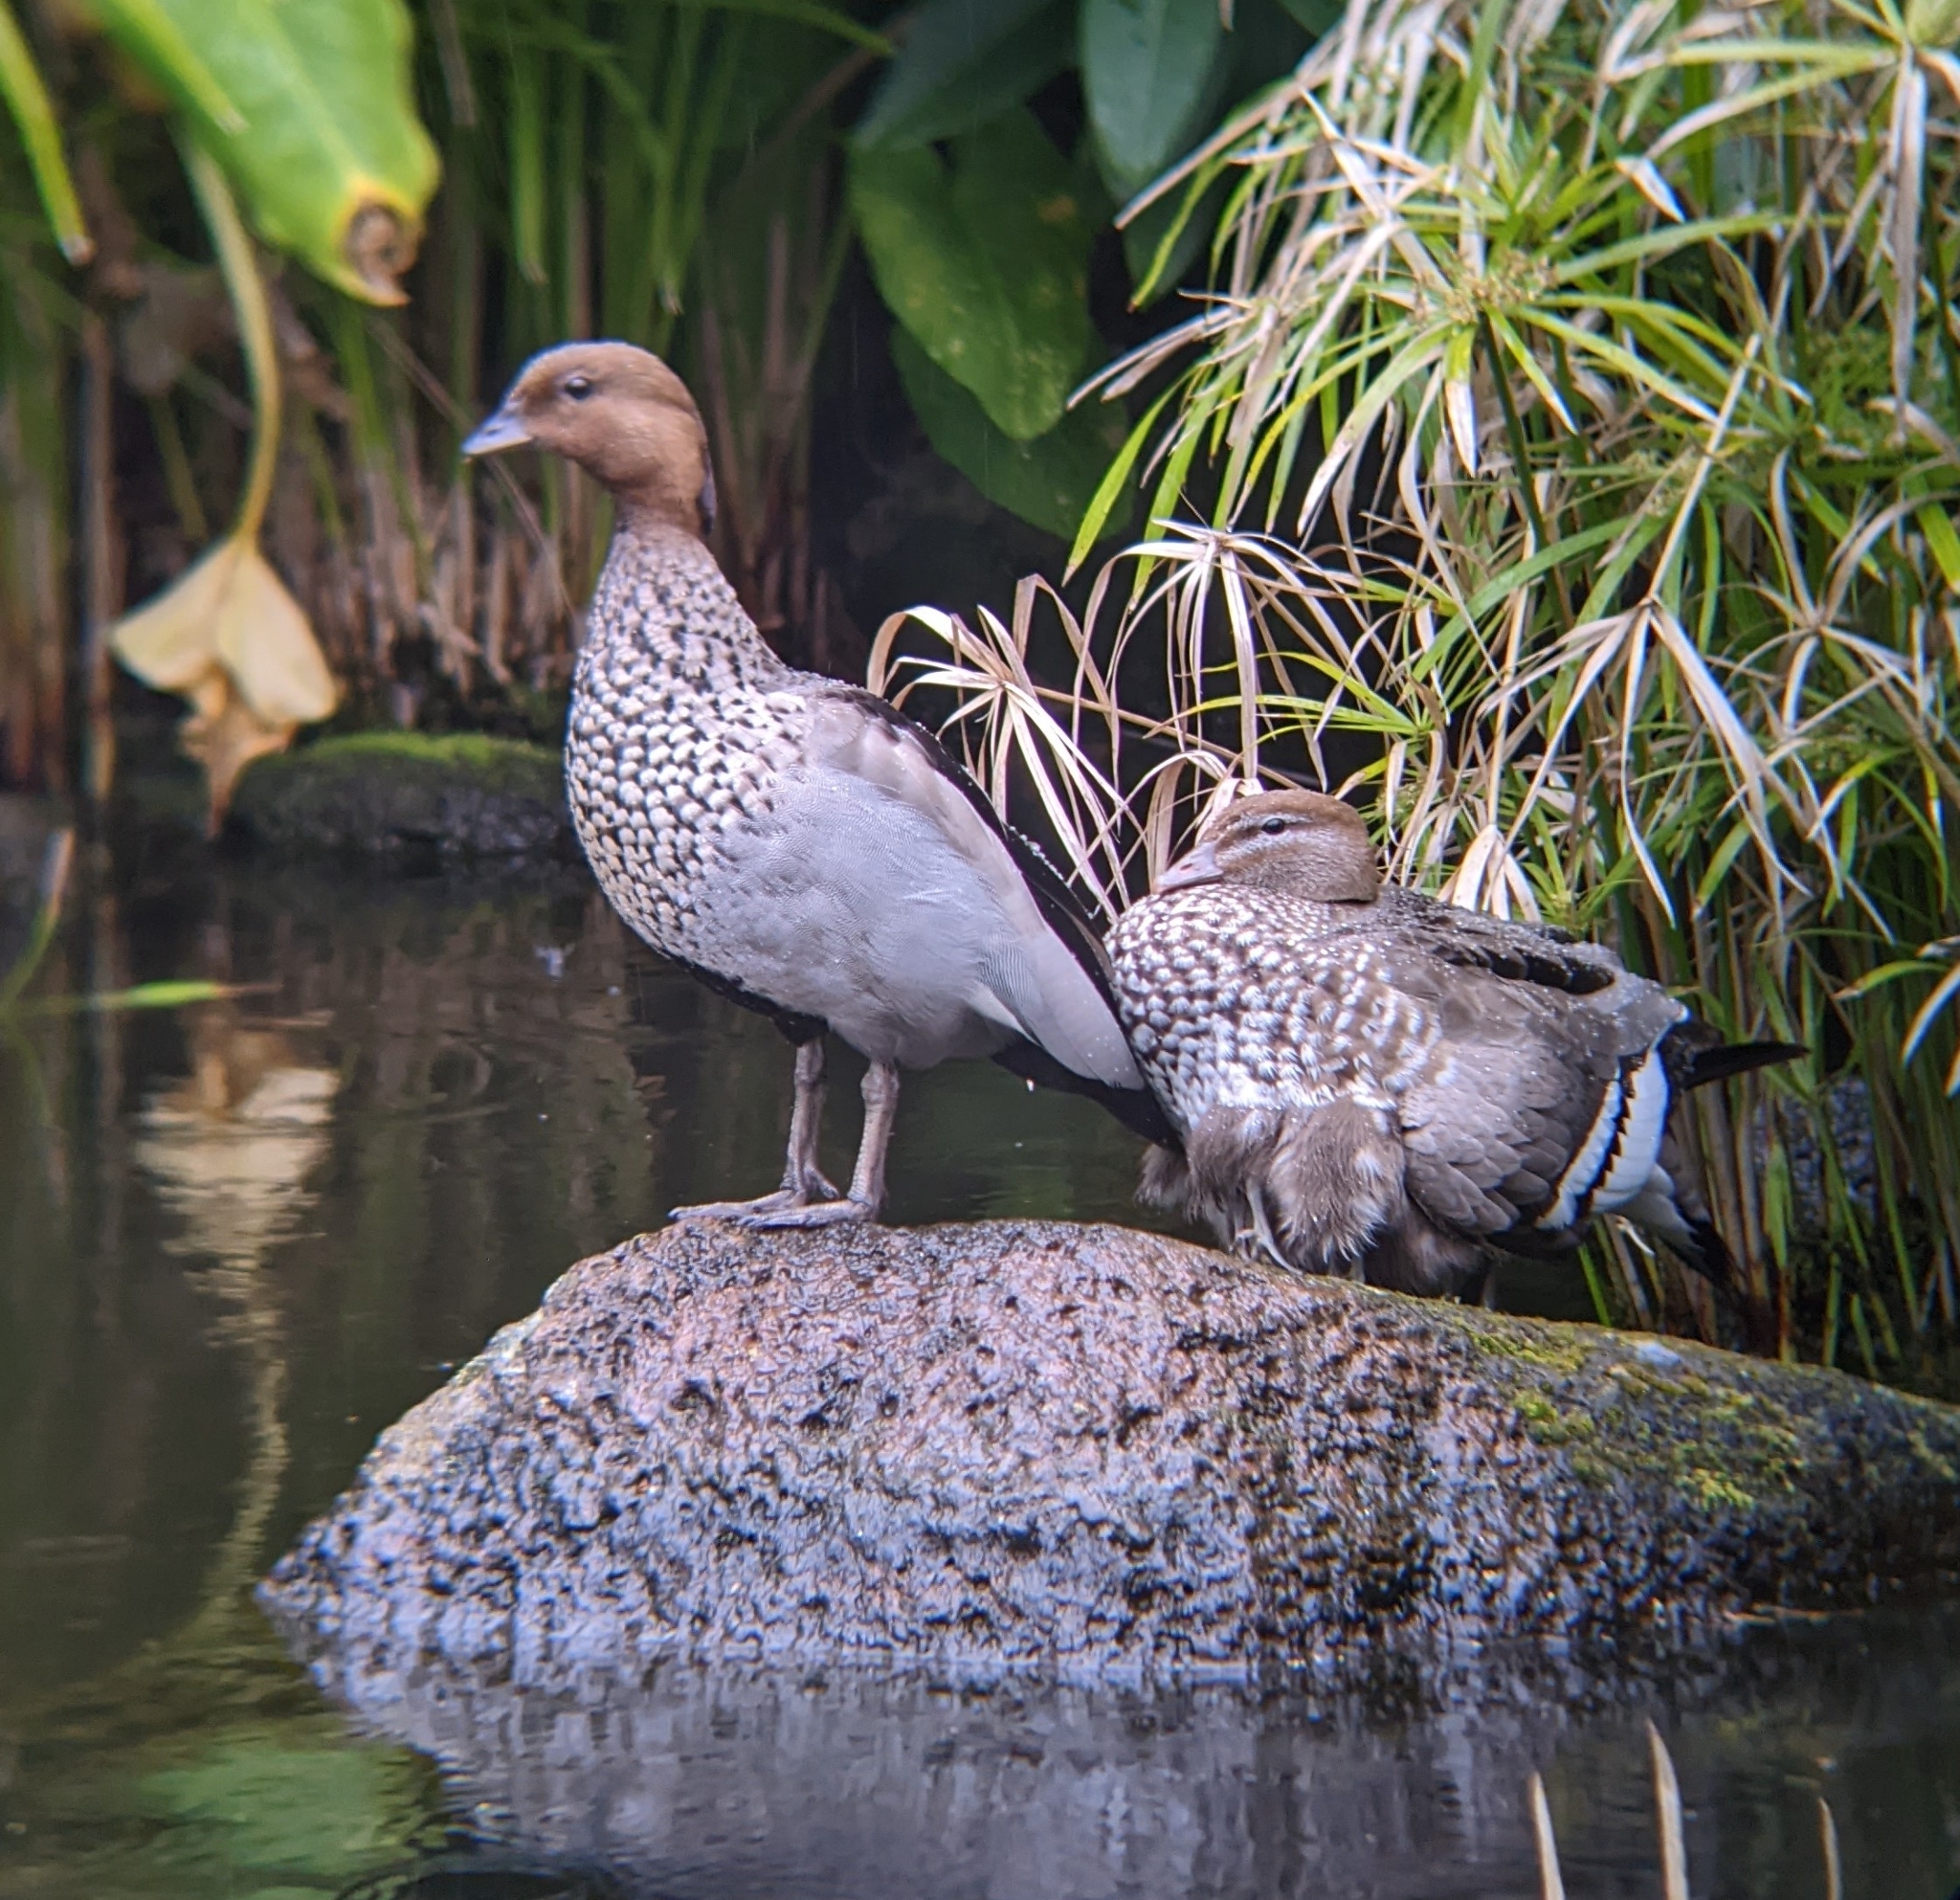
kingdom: Animalia
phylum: Chordata
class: Aves
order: Anseriformes
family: Anatidae
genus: Chenonetta
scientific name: Chenonetta jubata
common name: Maned duck
